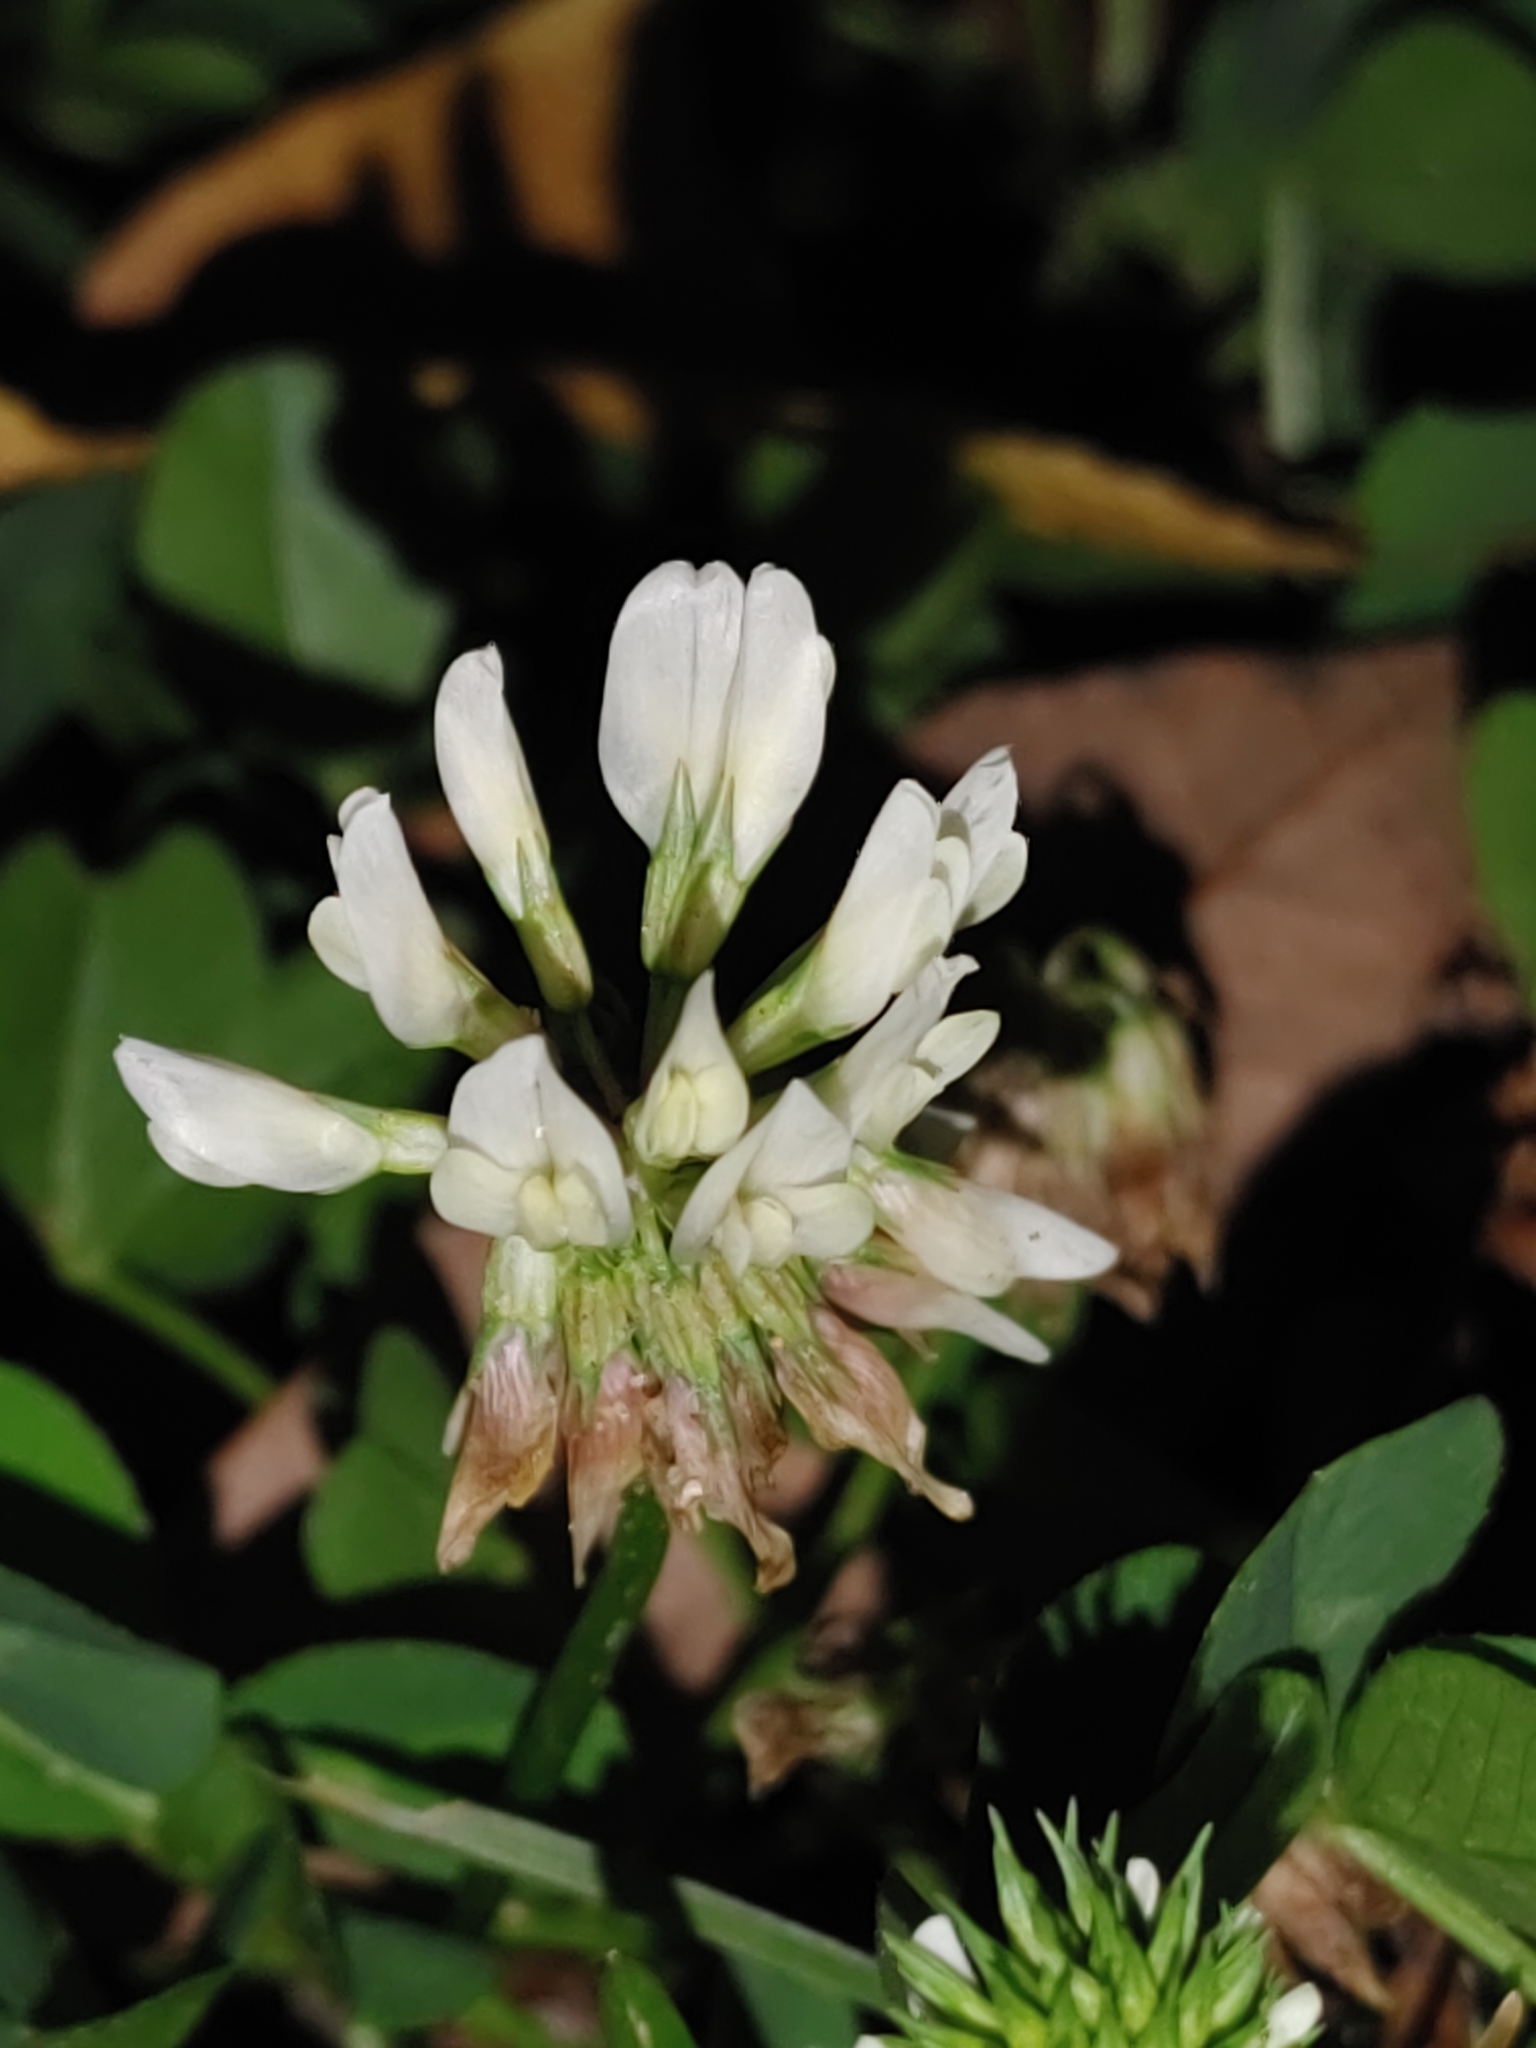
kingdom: Plantae
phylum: Tracheophyta
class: Magnoliopsida
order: Fabales
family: Fabaceae
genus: Trifolium
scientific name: Trifolium repens
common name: White clover
